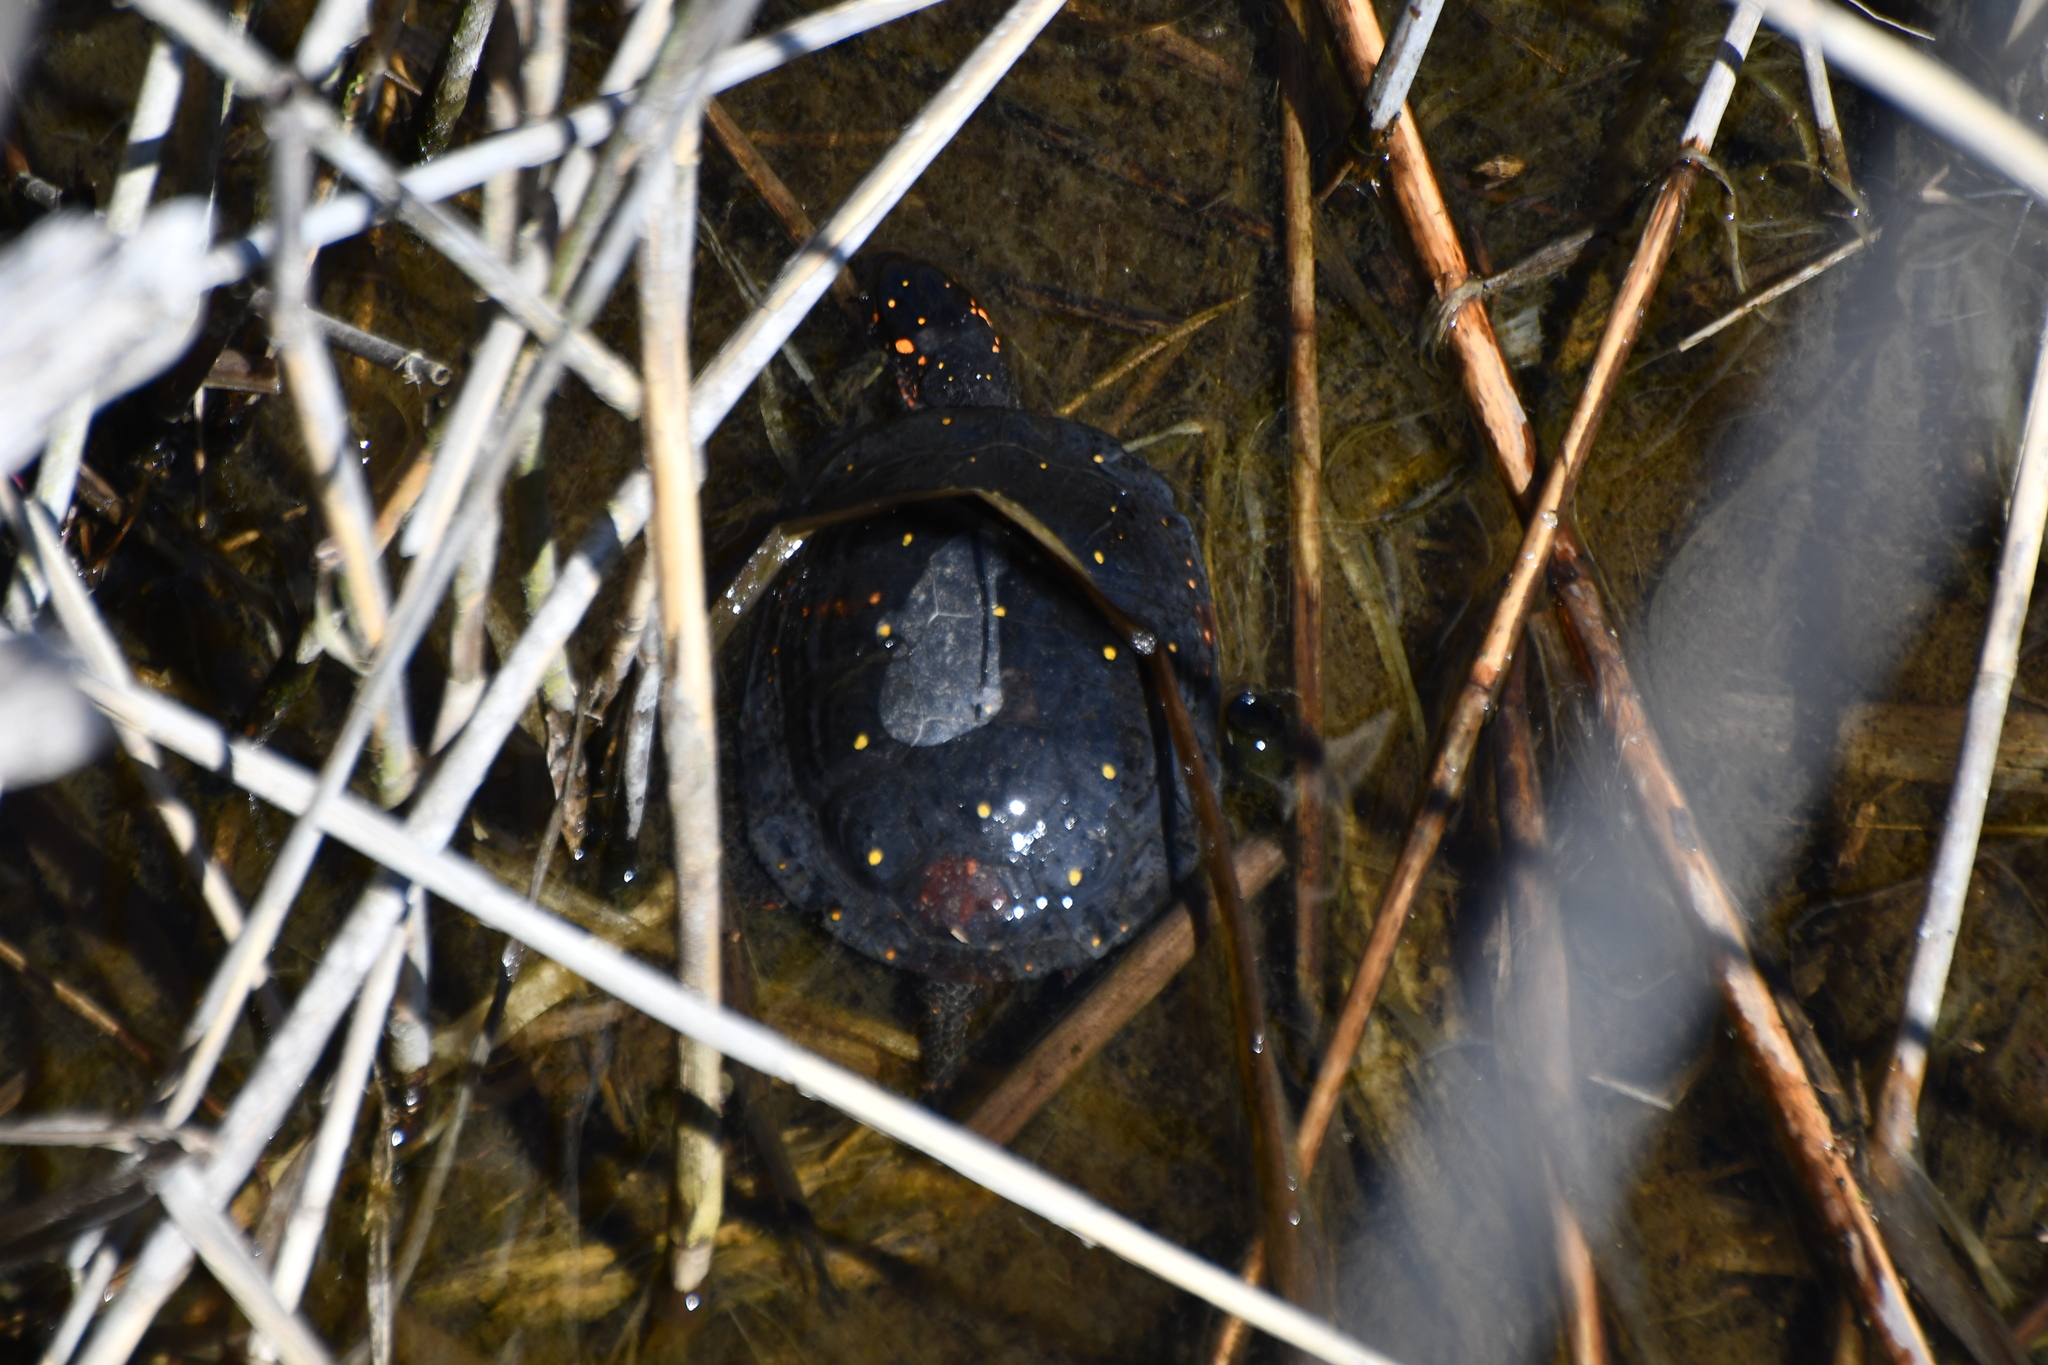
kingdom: Animalia
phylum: Chordata
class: Testudines
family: Emydidae
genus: Clemmys
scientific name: Clemmys guttata
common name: Spotted turtle
